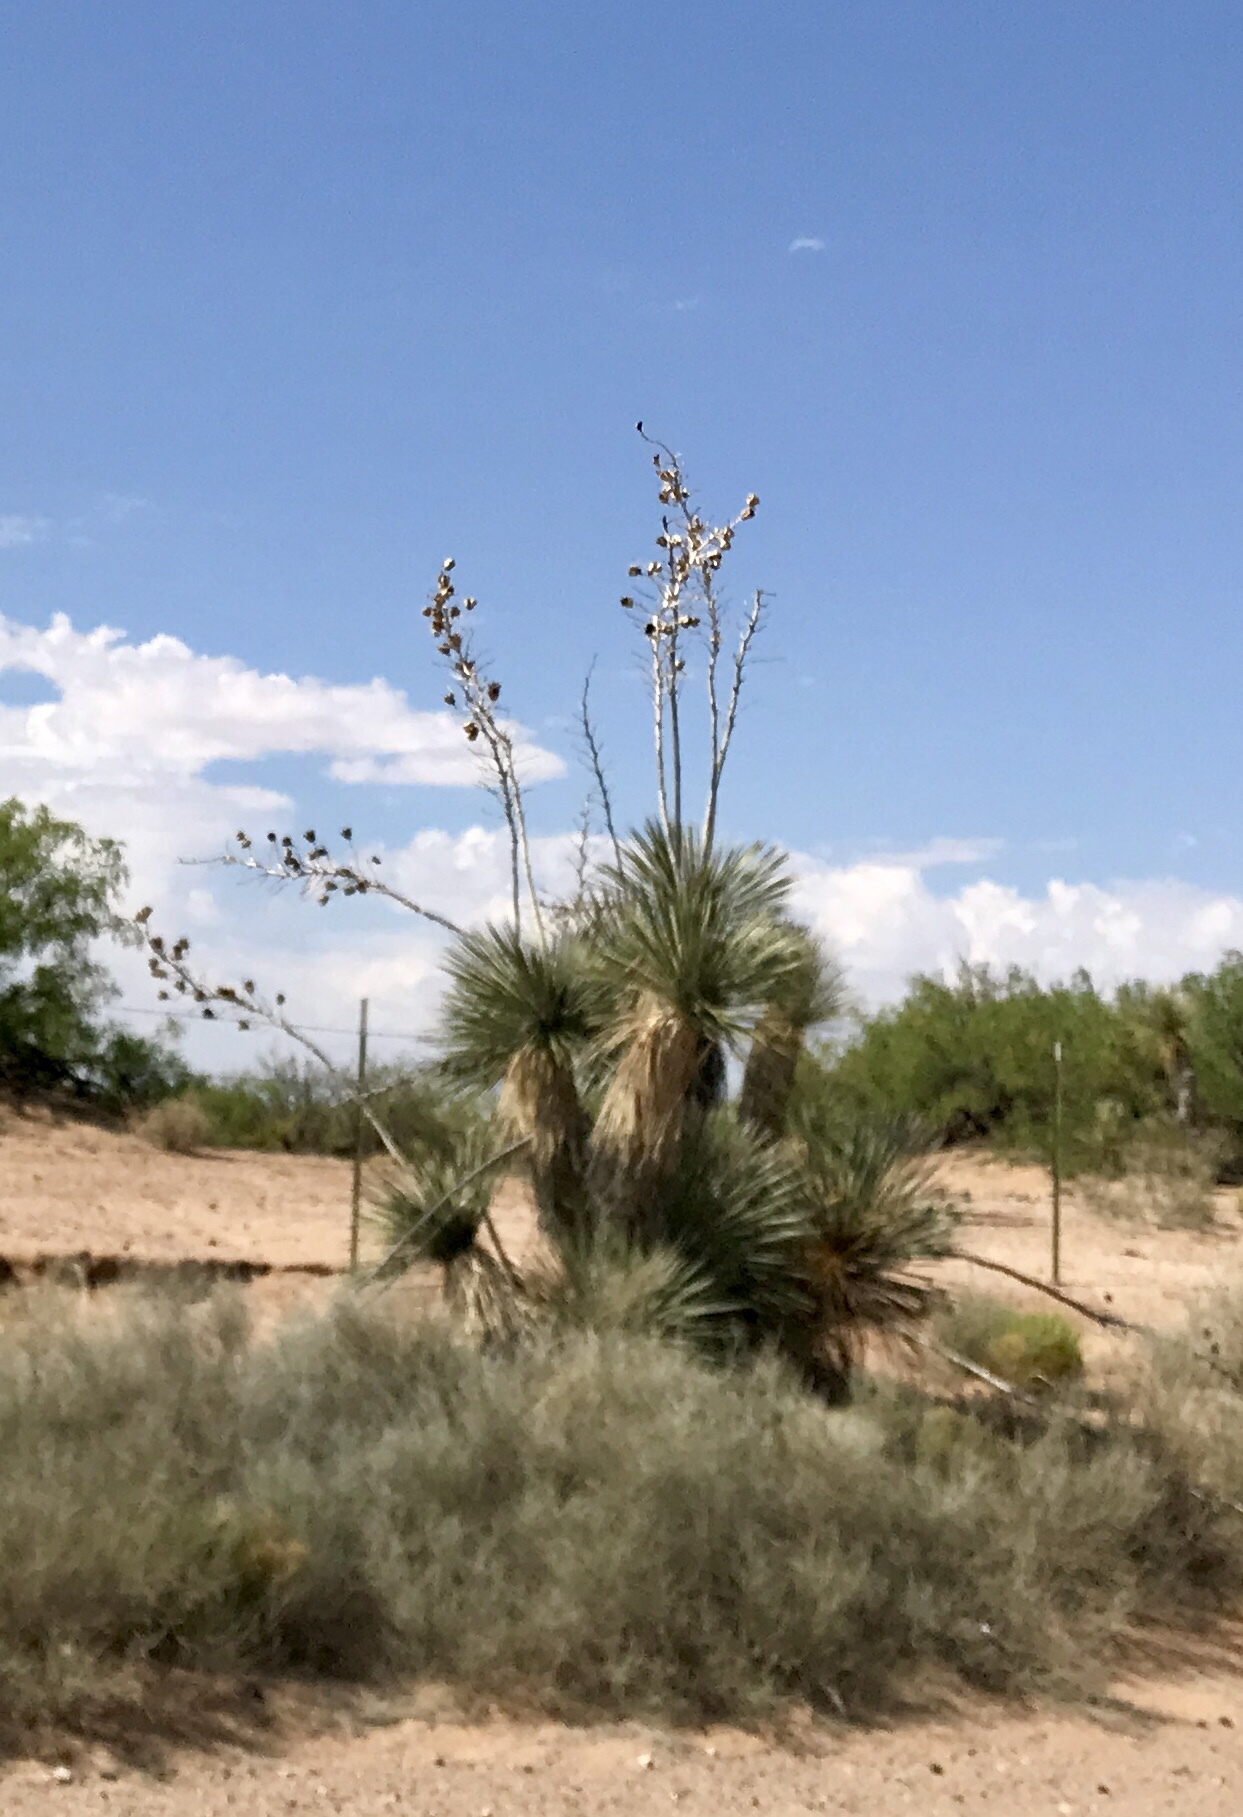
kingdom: Plantae
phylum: Tracheophyta
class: Liliopsida
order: Asparagales
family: Asparagaceae
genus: Yucca
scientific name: Yucca elata
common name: Palmella
